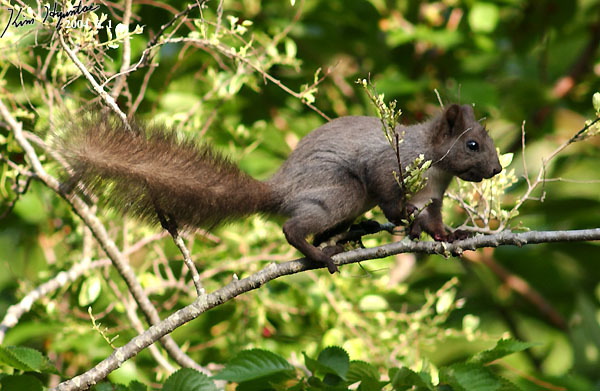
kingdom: Animalia
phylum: Chordata
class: Mammalia
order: Rodentia
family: Sciuridae
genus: Sciurus
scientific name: Sciurus vulgaris
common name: Eurasian red squirrel
